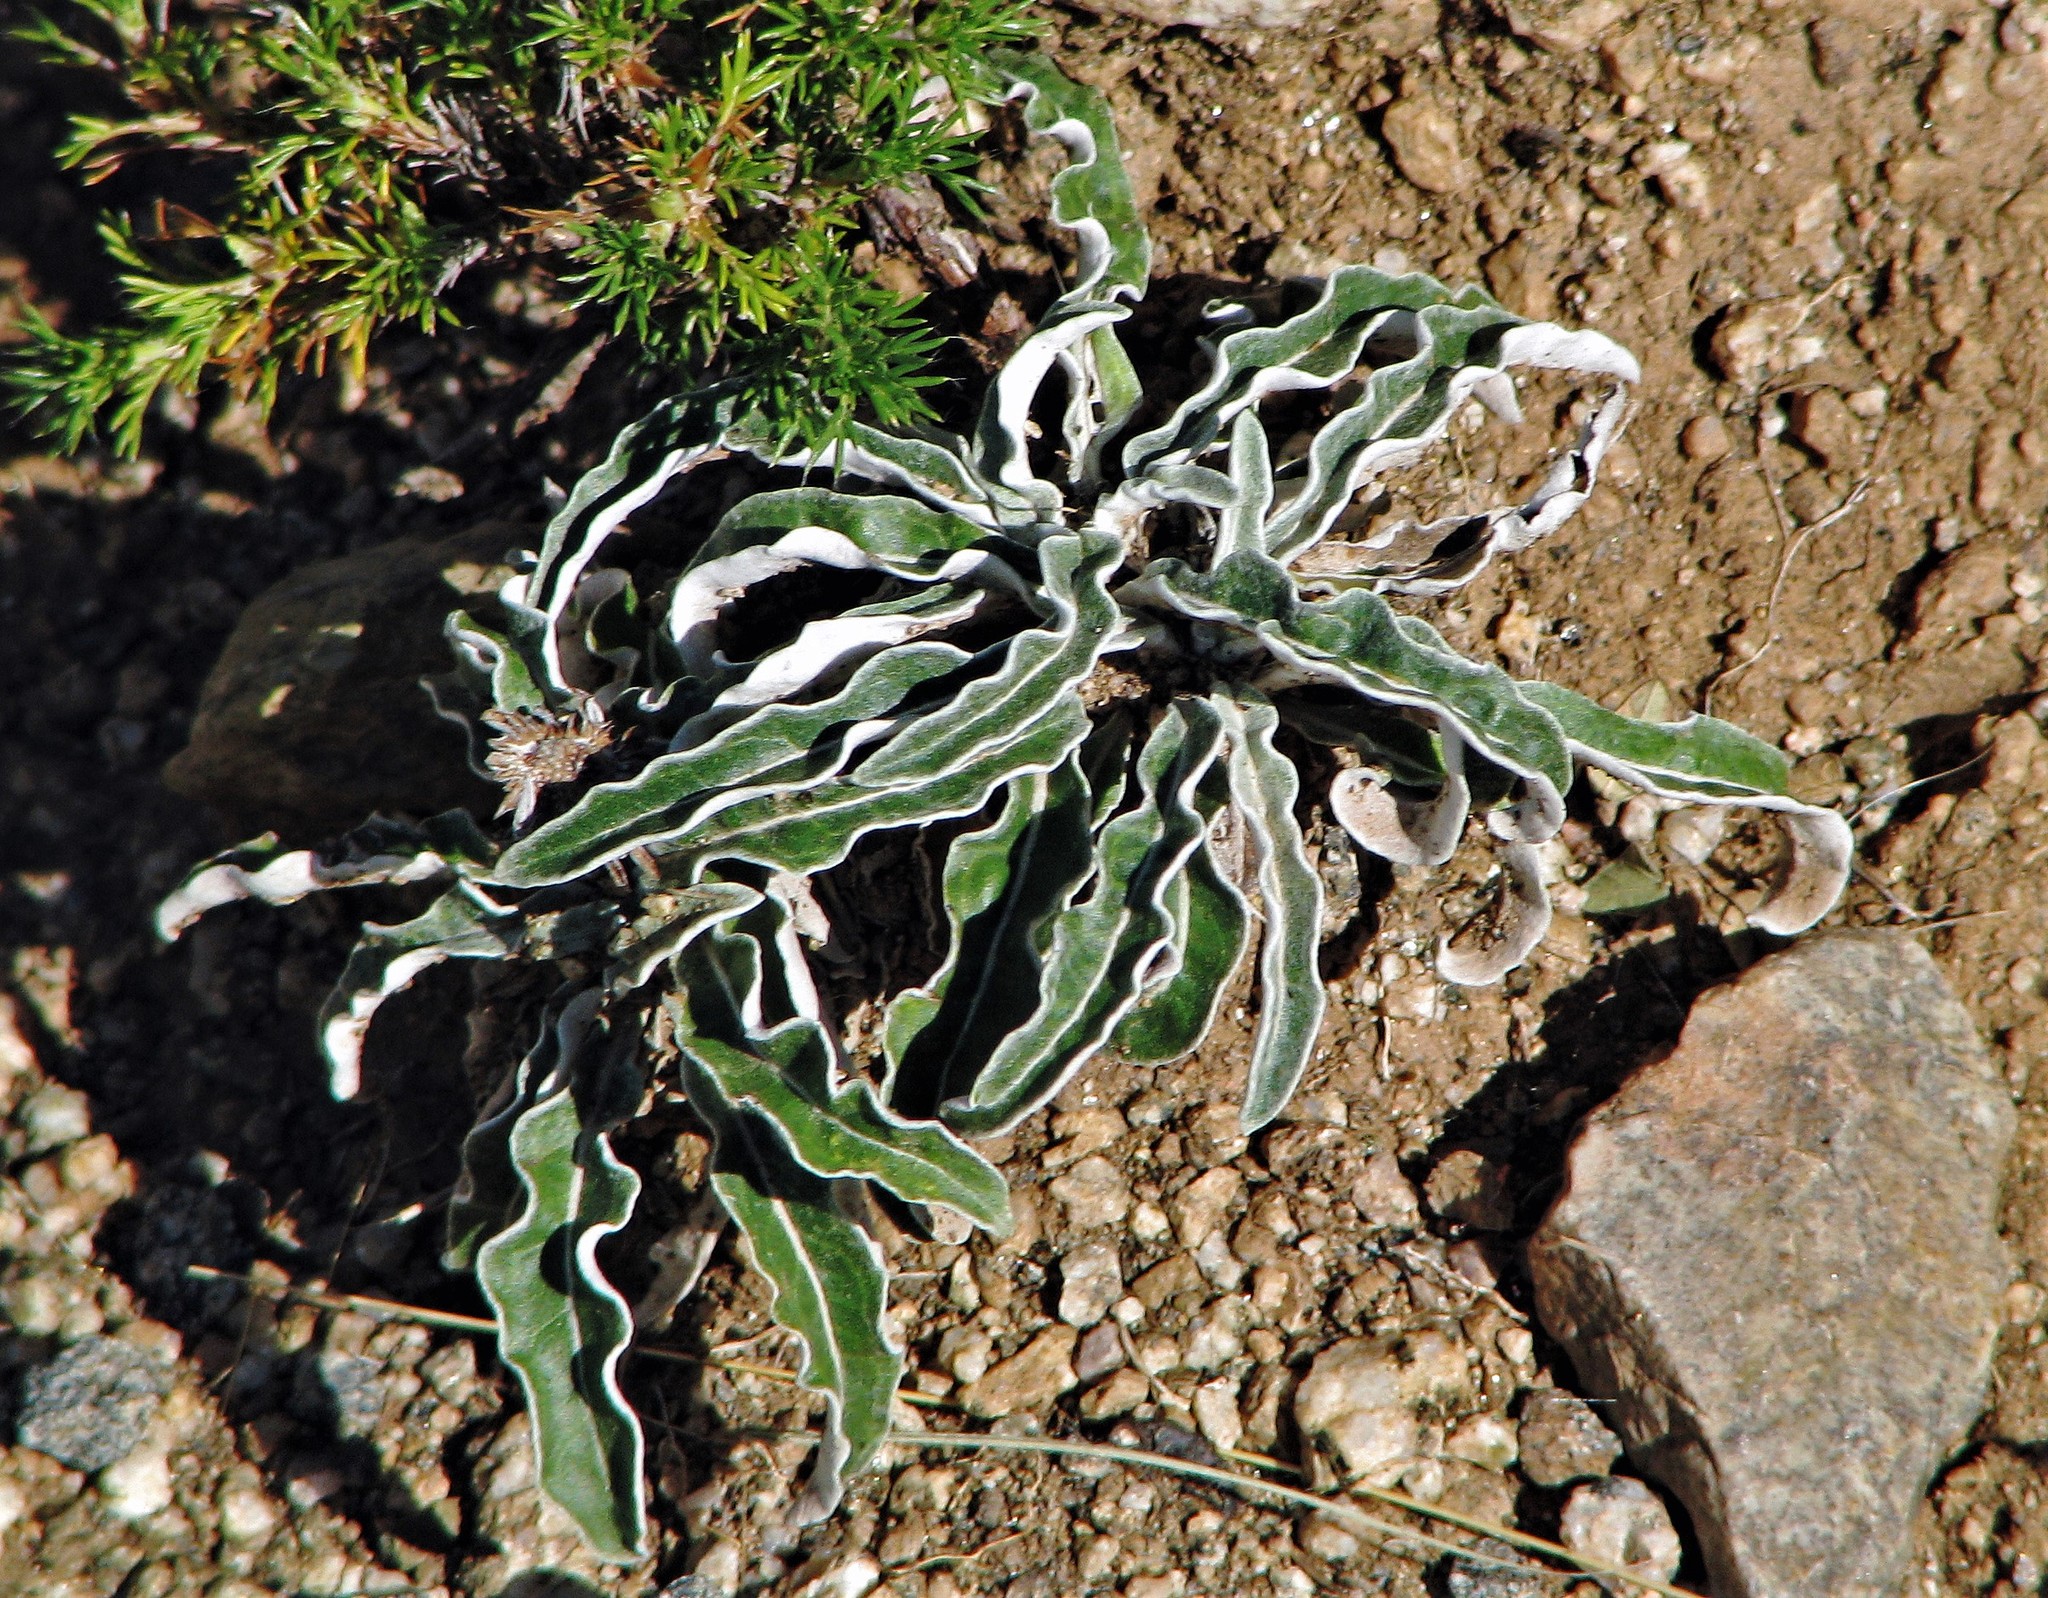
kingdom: Plantae
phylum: Tracheophyta
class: Magnoliopsida
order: Asterales
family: Asteraceae
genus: Trichocline
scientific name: Trichocline reptans
